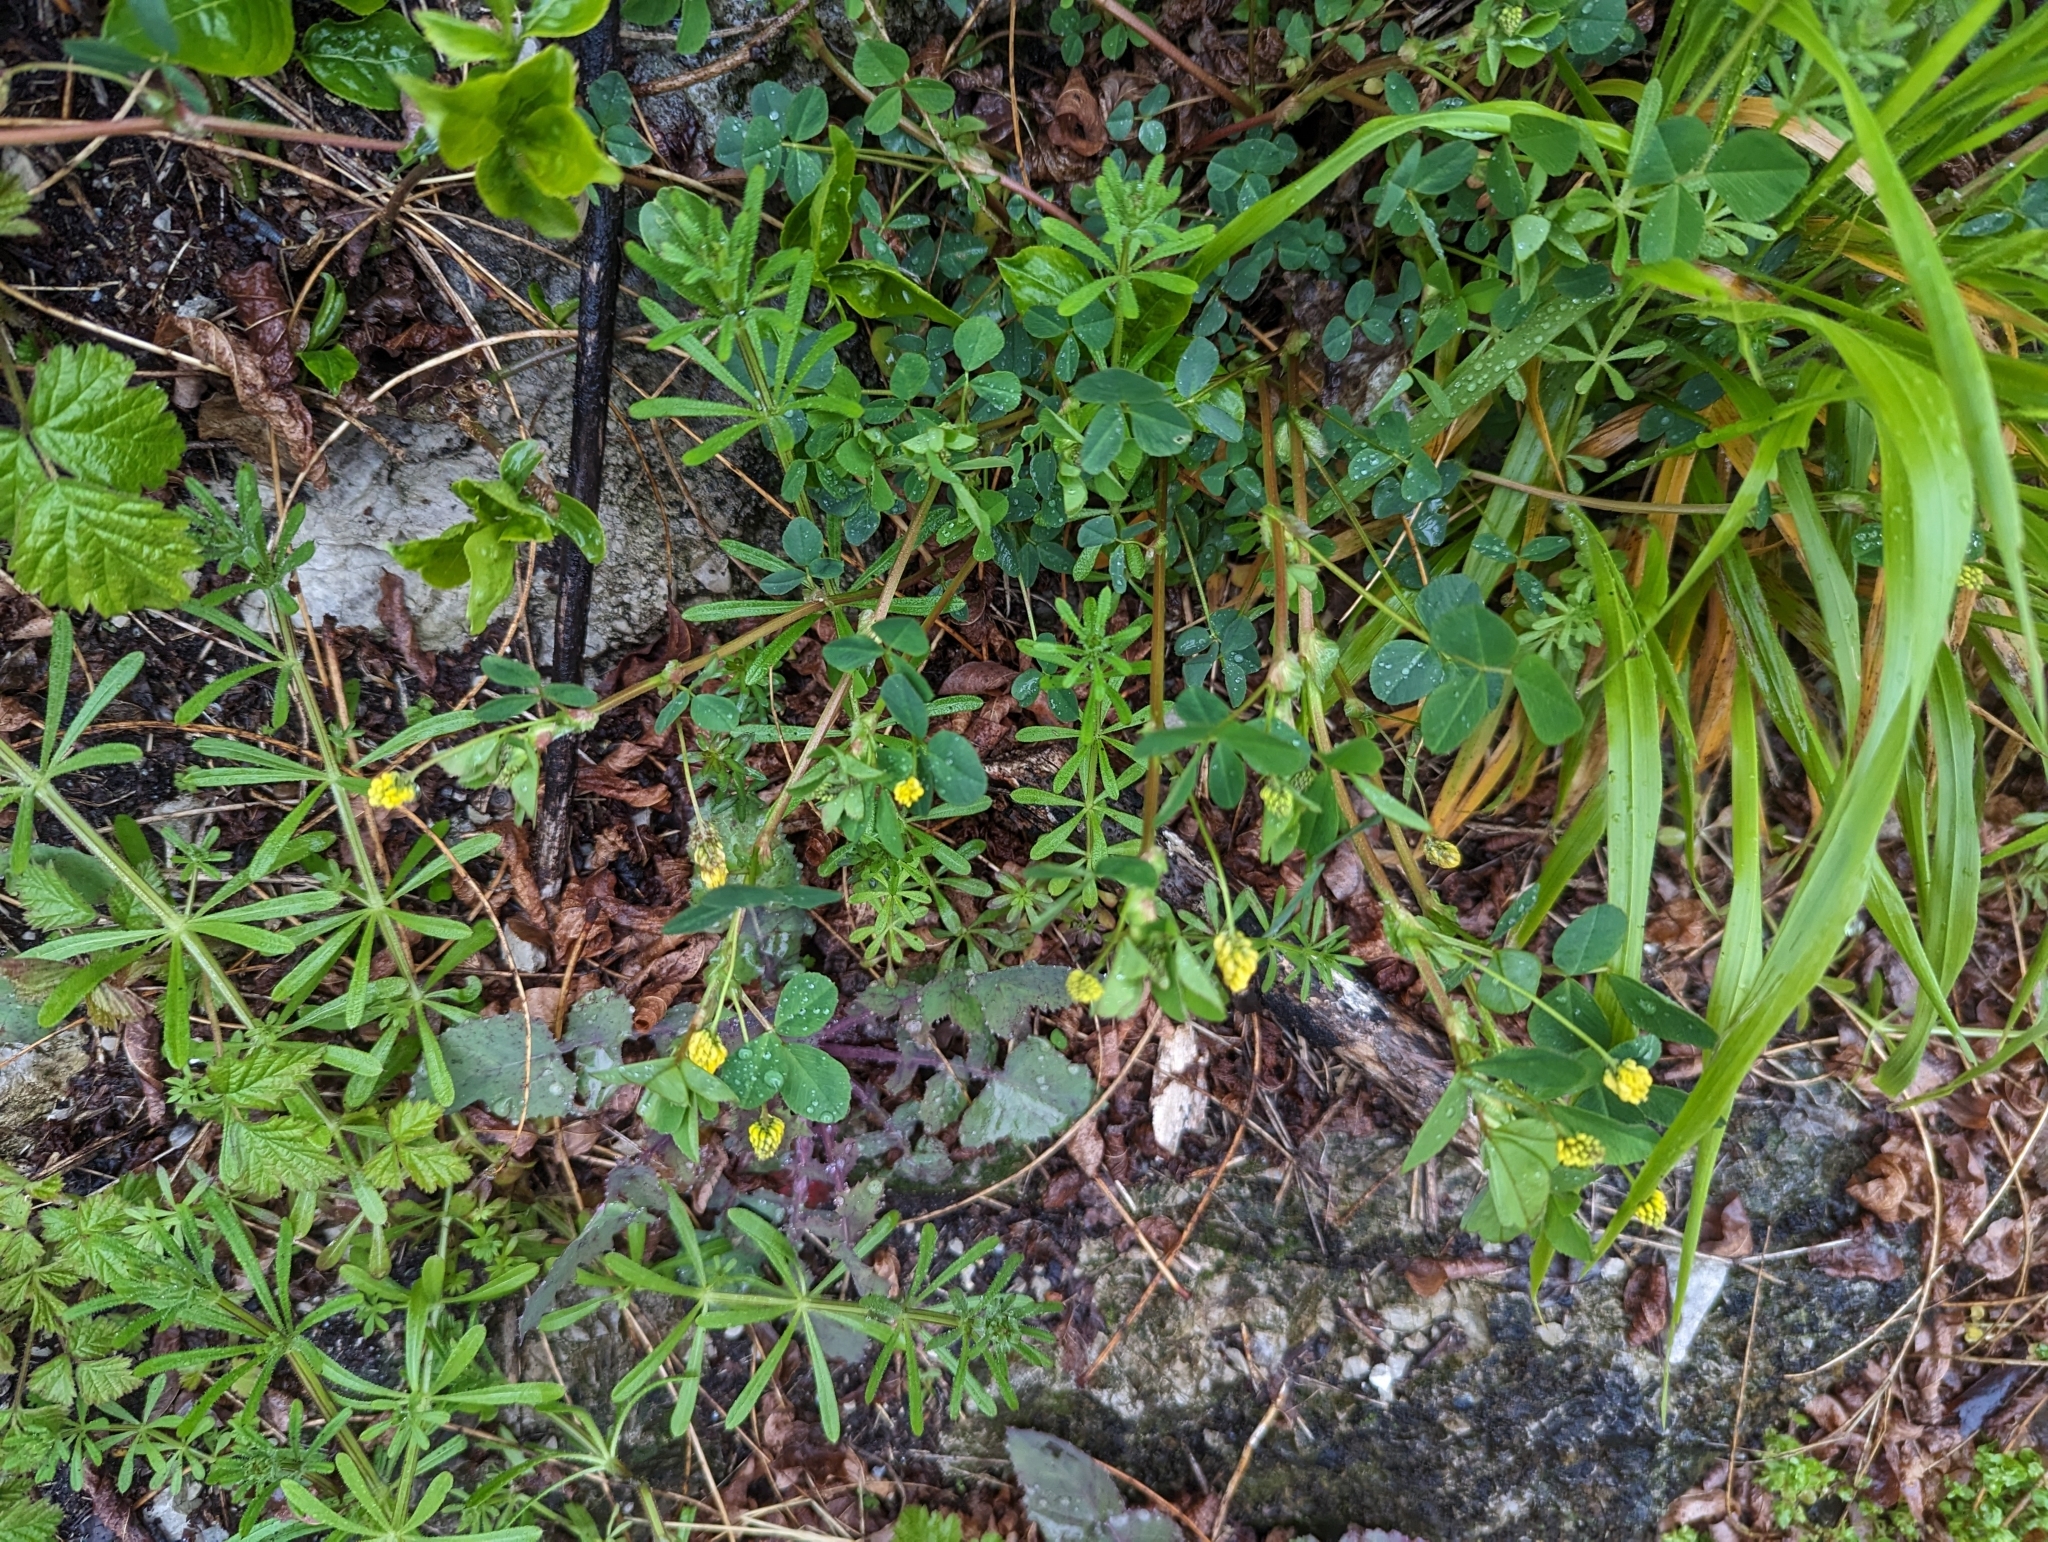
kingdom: Plantae
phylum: Tracheophyta
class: Magnoliopsida
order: Fabales
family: Fabaceae
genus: Medicago
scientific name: Medicago lupulina
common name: Black medick
